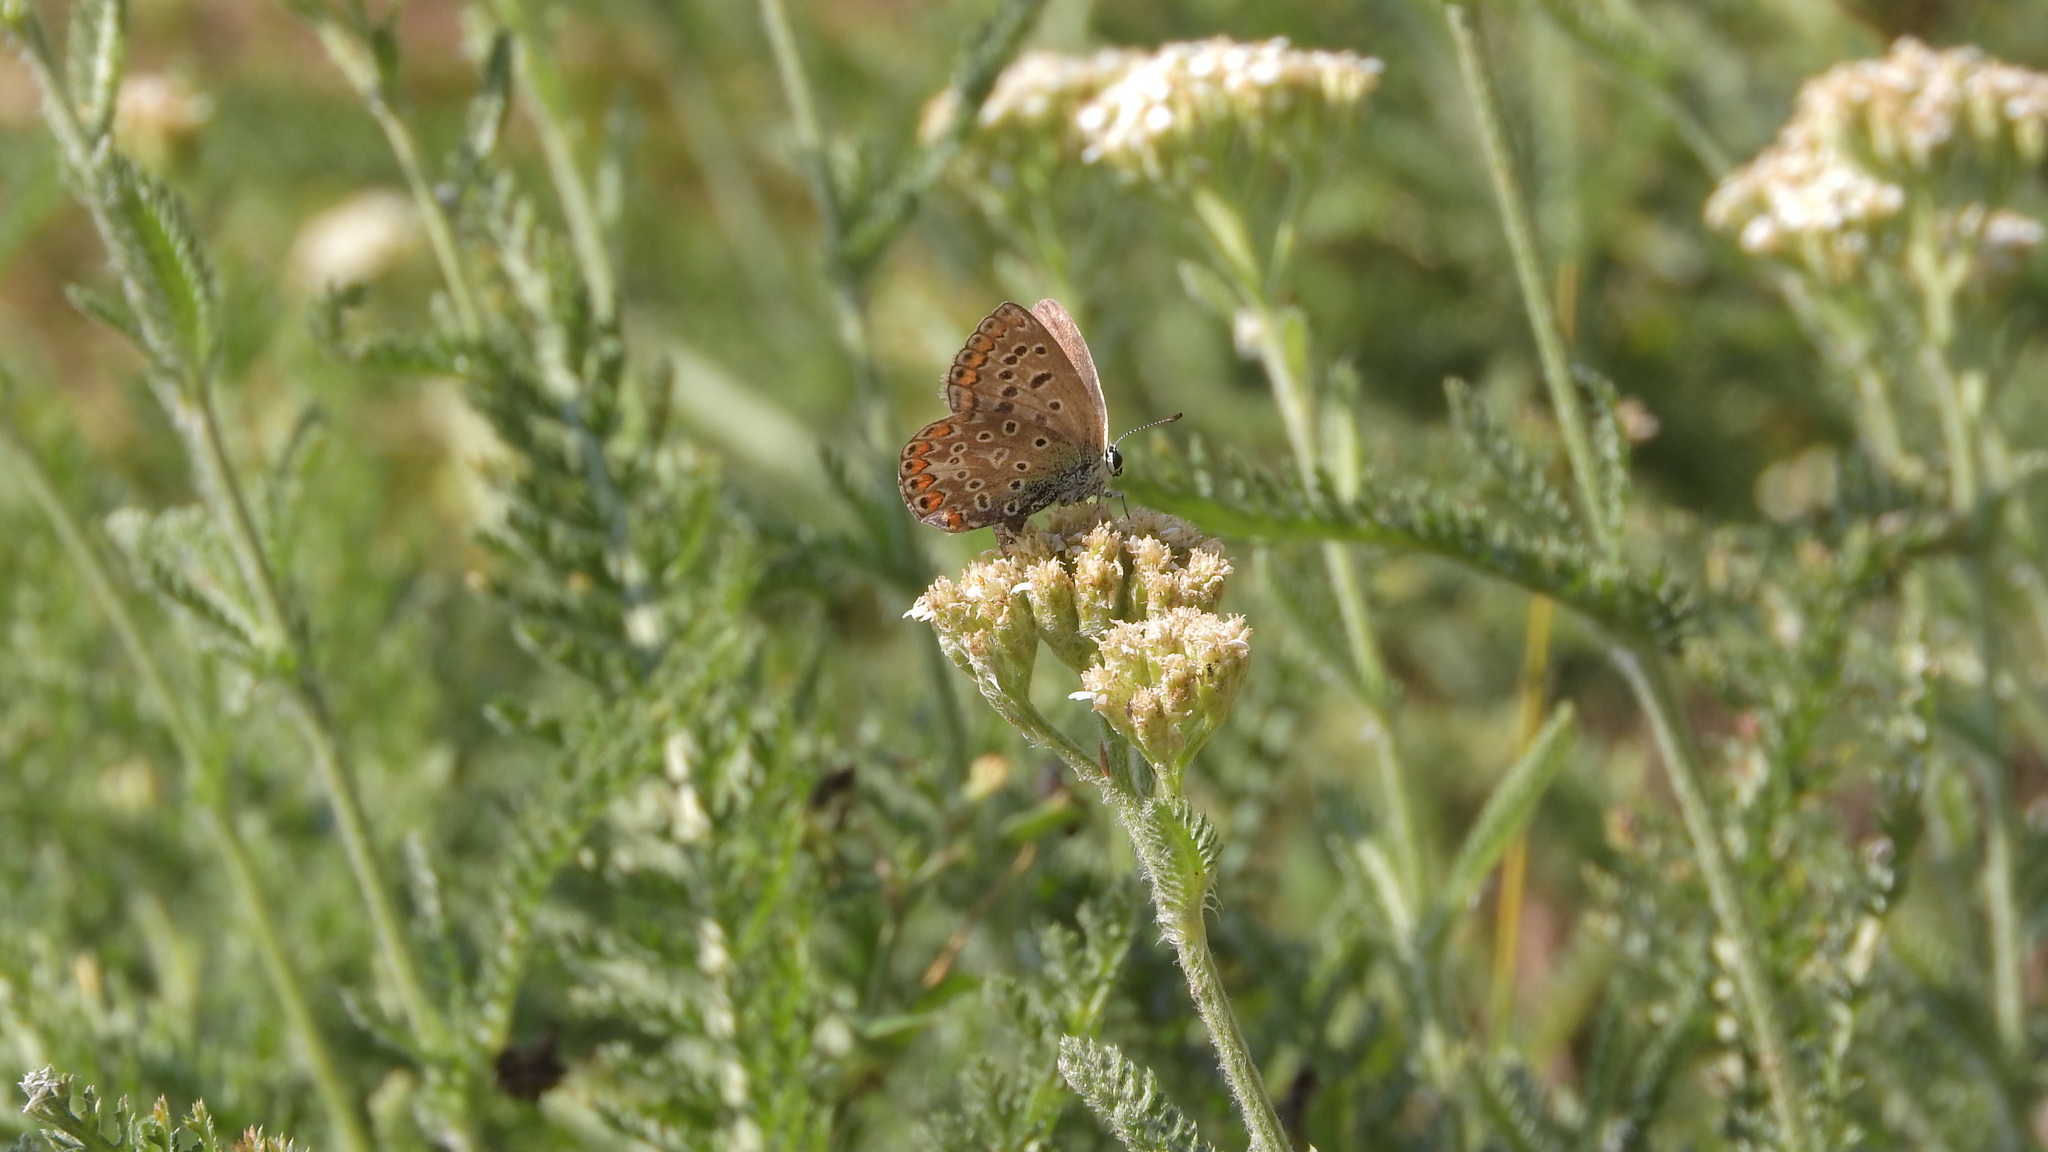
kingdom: Animalia
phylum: Arthropoda
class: Insecta
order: Lepidoptera
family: Lycaenidae
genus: Polyommatus
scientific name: Polyommatus icarus
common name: Common blue
